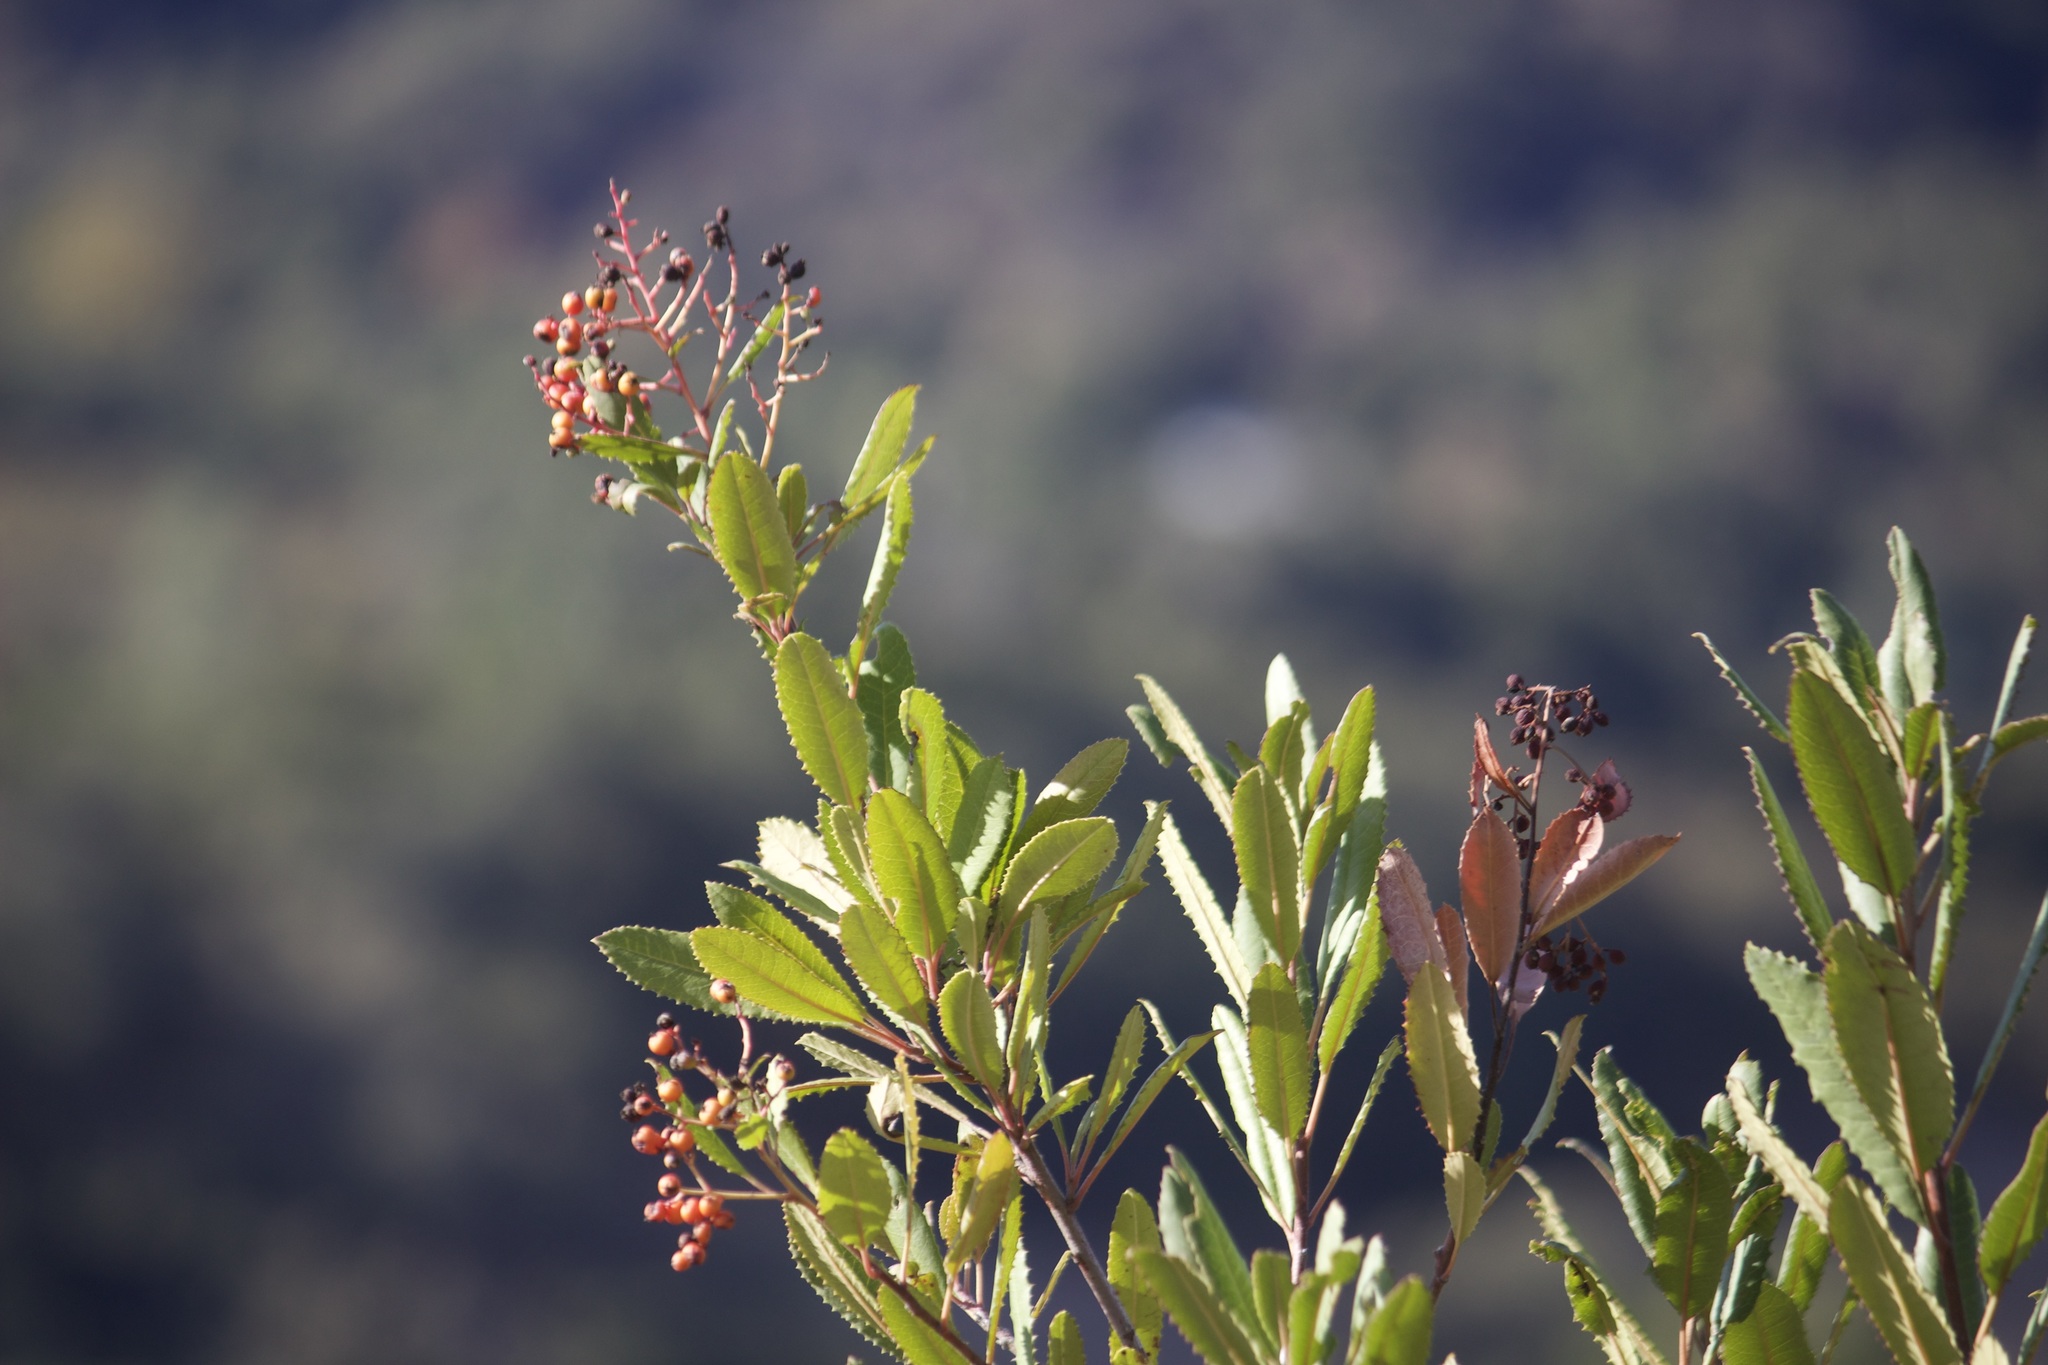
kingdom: Plantae
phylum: Tracheophyta
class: Magnoliopsida
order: Rosales
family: Rosaceae
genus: Heteromeles
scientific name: Heteromeles arbutifolia
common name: California-holly
